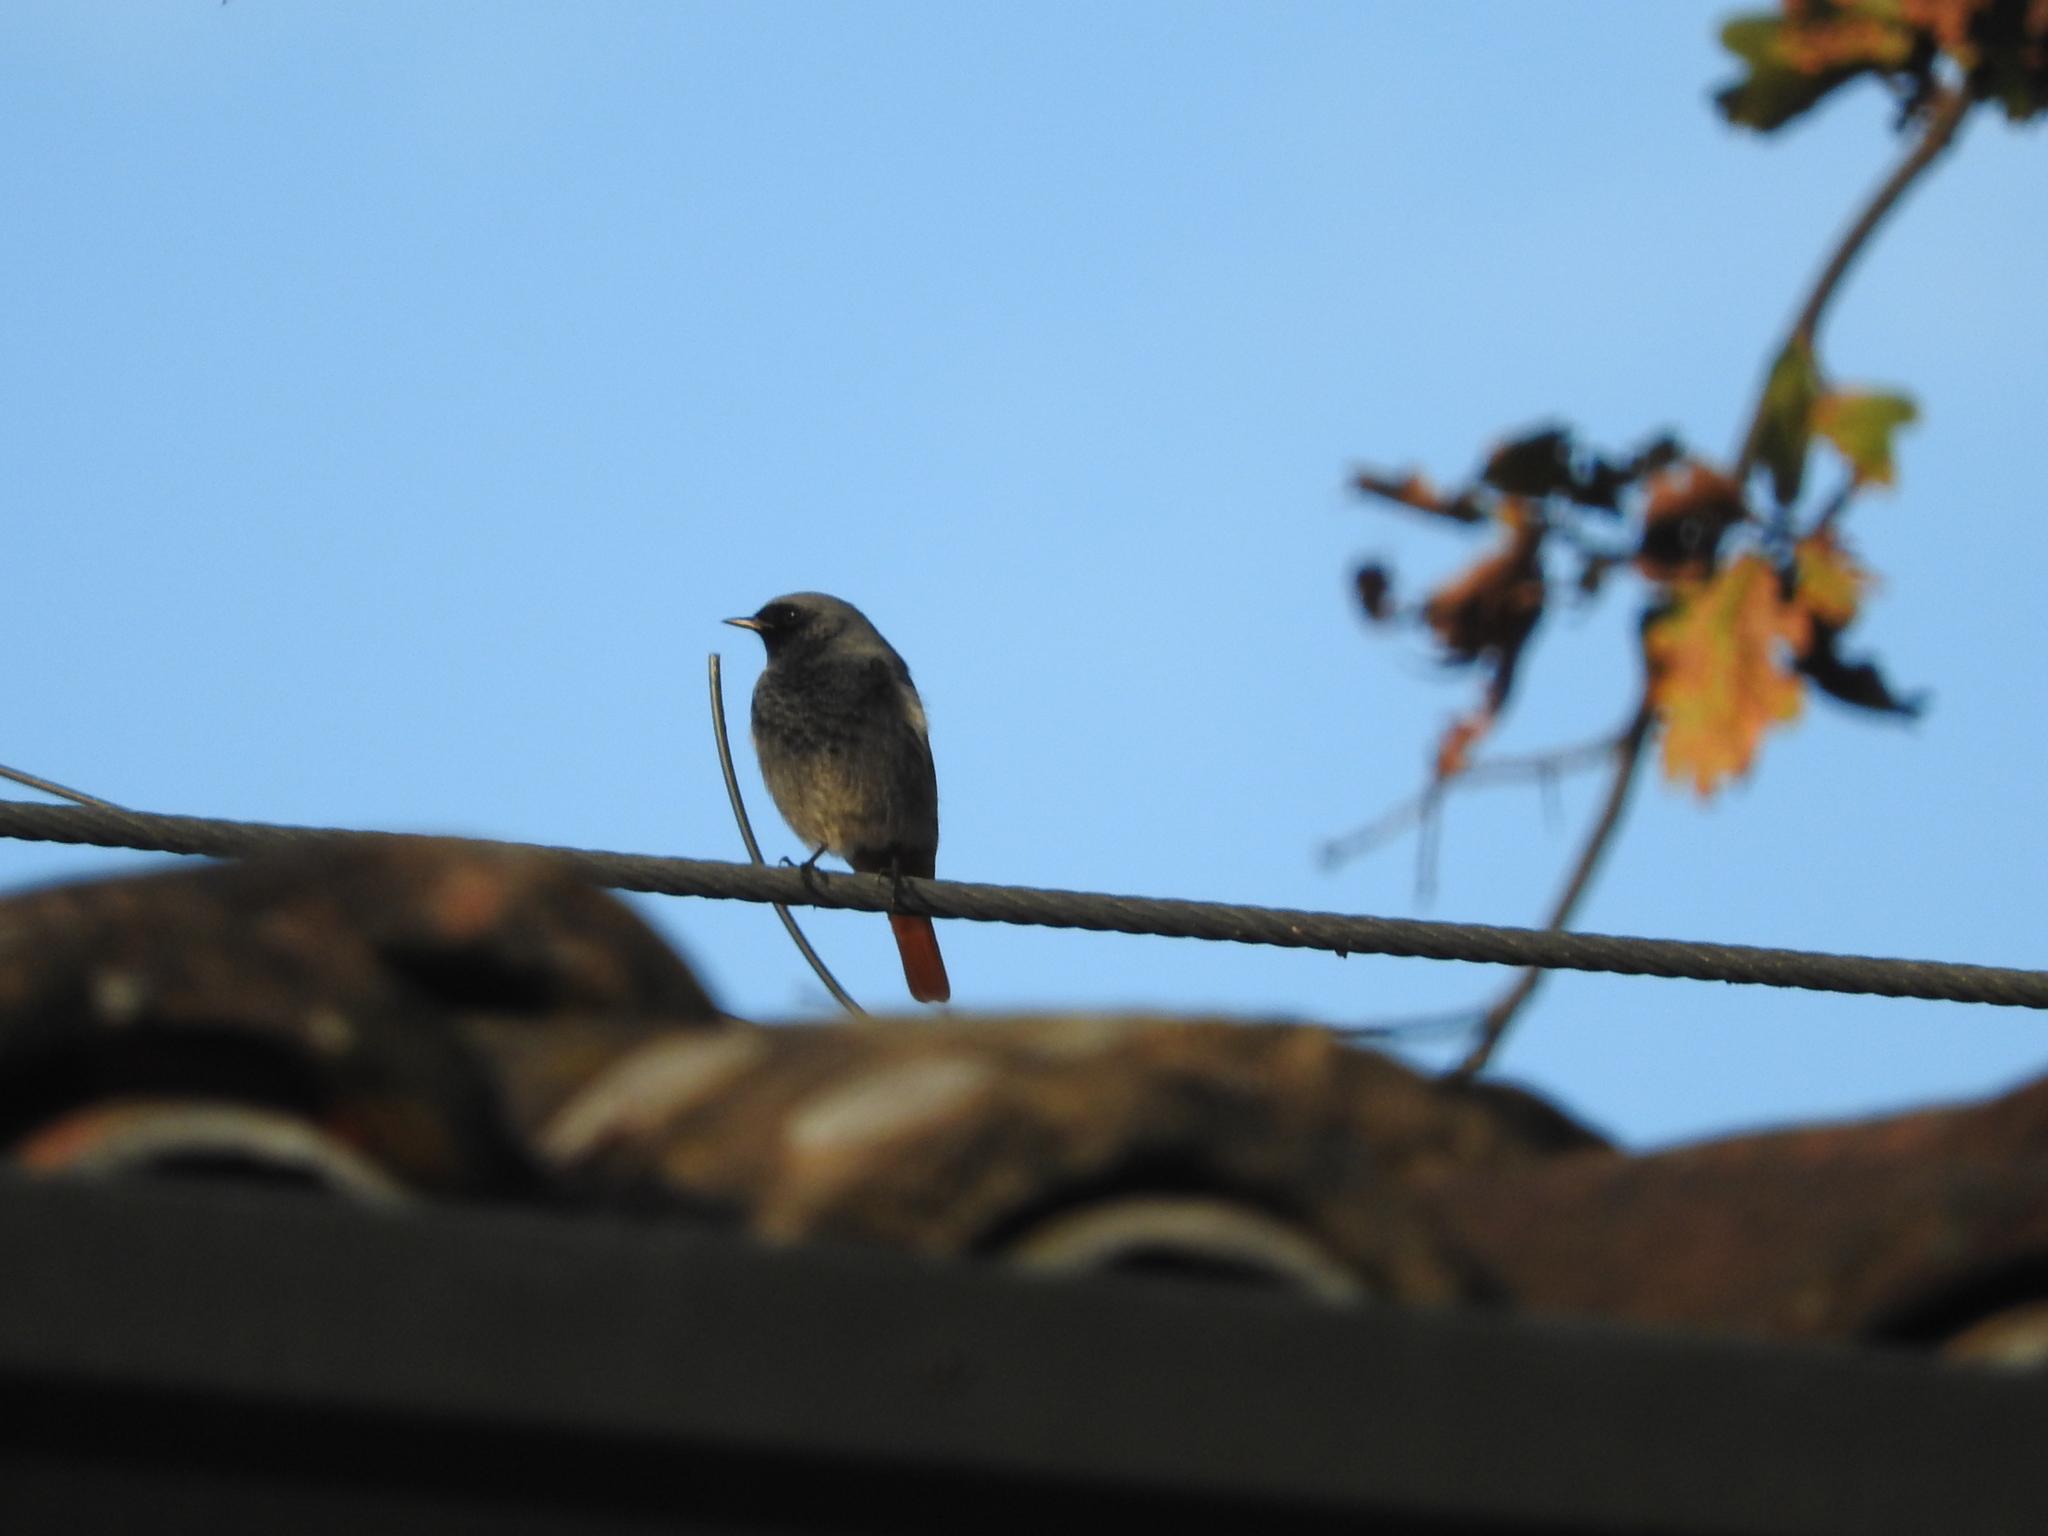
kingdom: Animalia
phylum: Chordata
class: Aves
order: Passeriformes
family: Muscicapidae
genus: Phoenicurus
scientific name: Phoenicurus ochruros
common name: Black redstart
